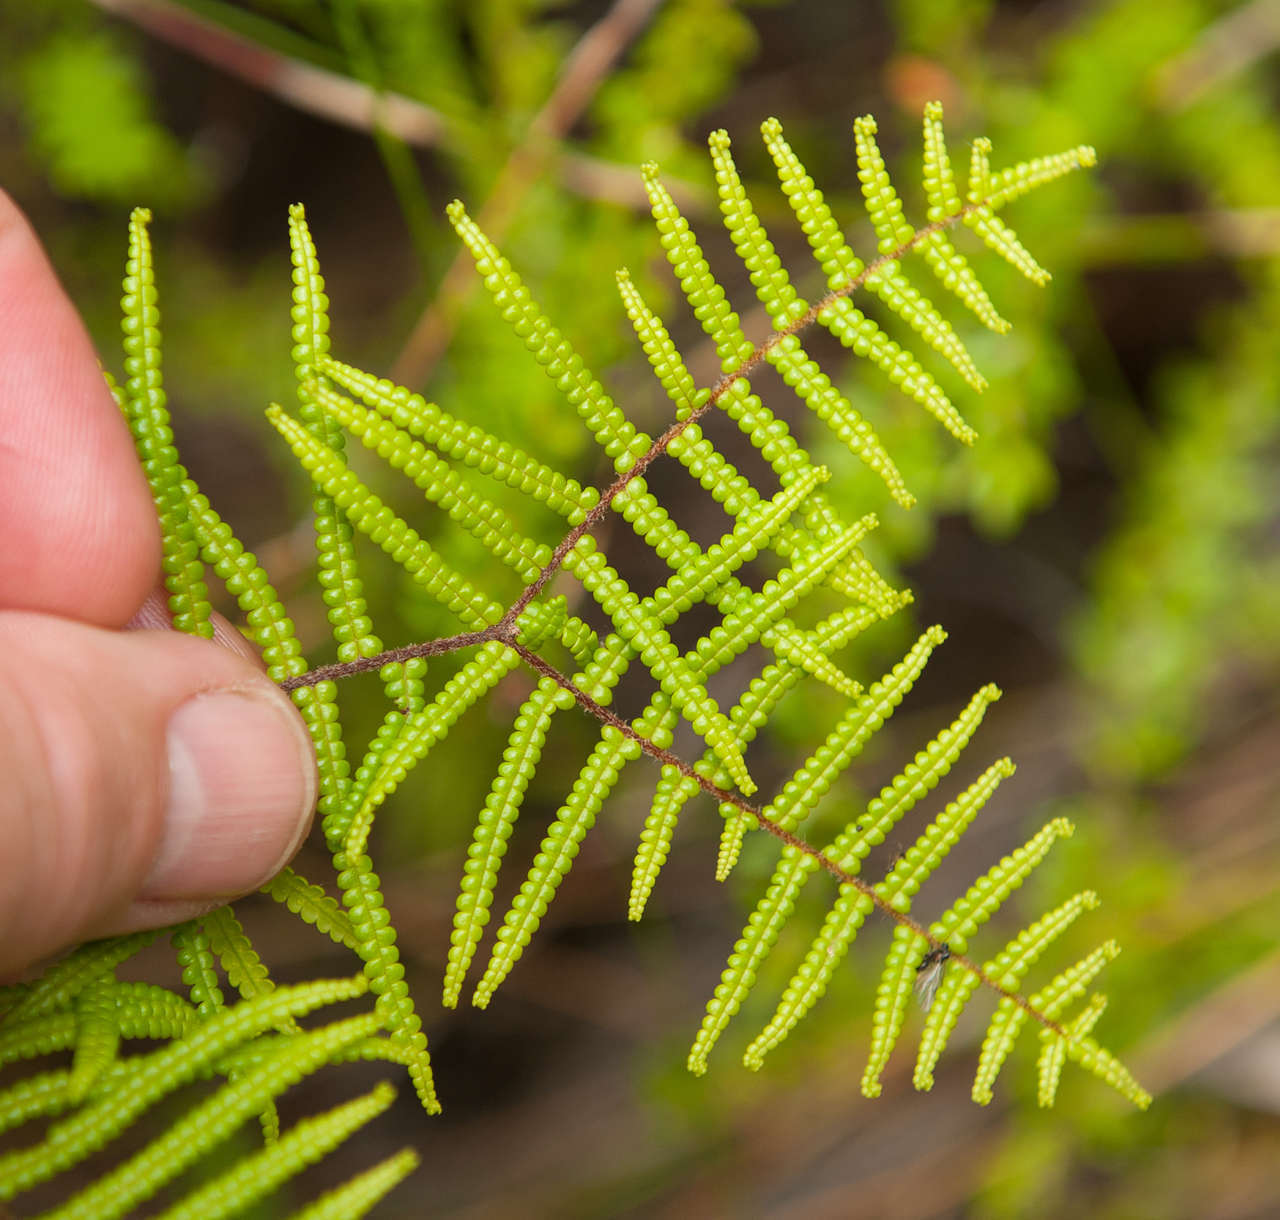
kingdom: Plantae
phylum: Tracheophyta
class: Polypodiopsida
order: Gleicheniales
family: Gleicheniaceae
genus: Gleichenia
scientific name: Gleichenia microphylla
